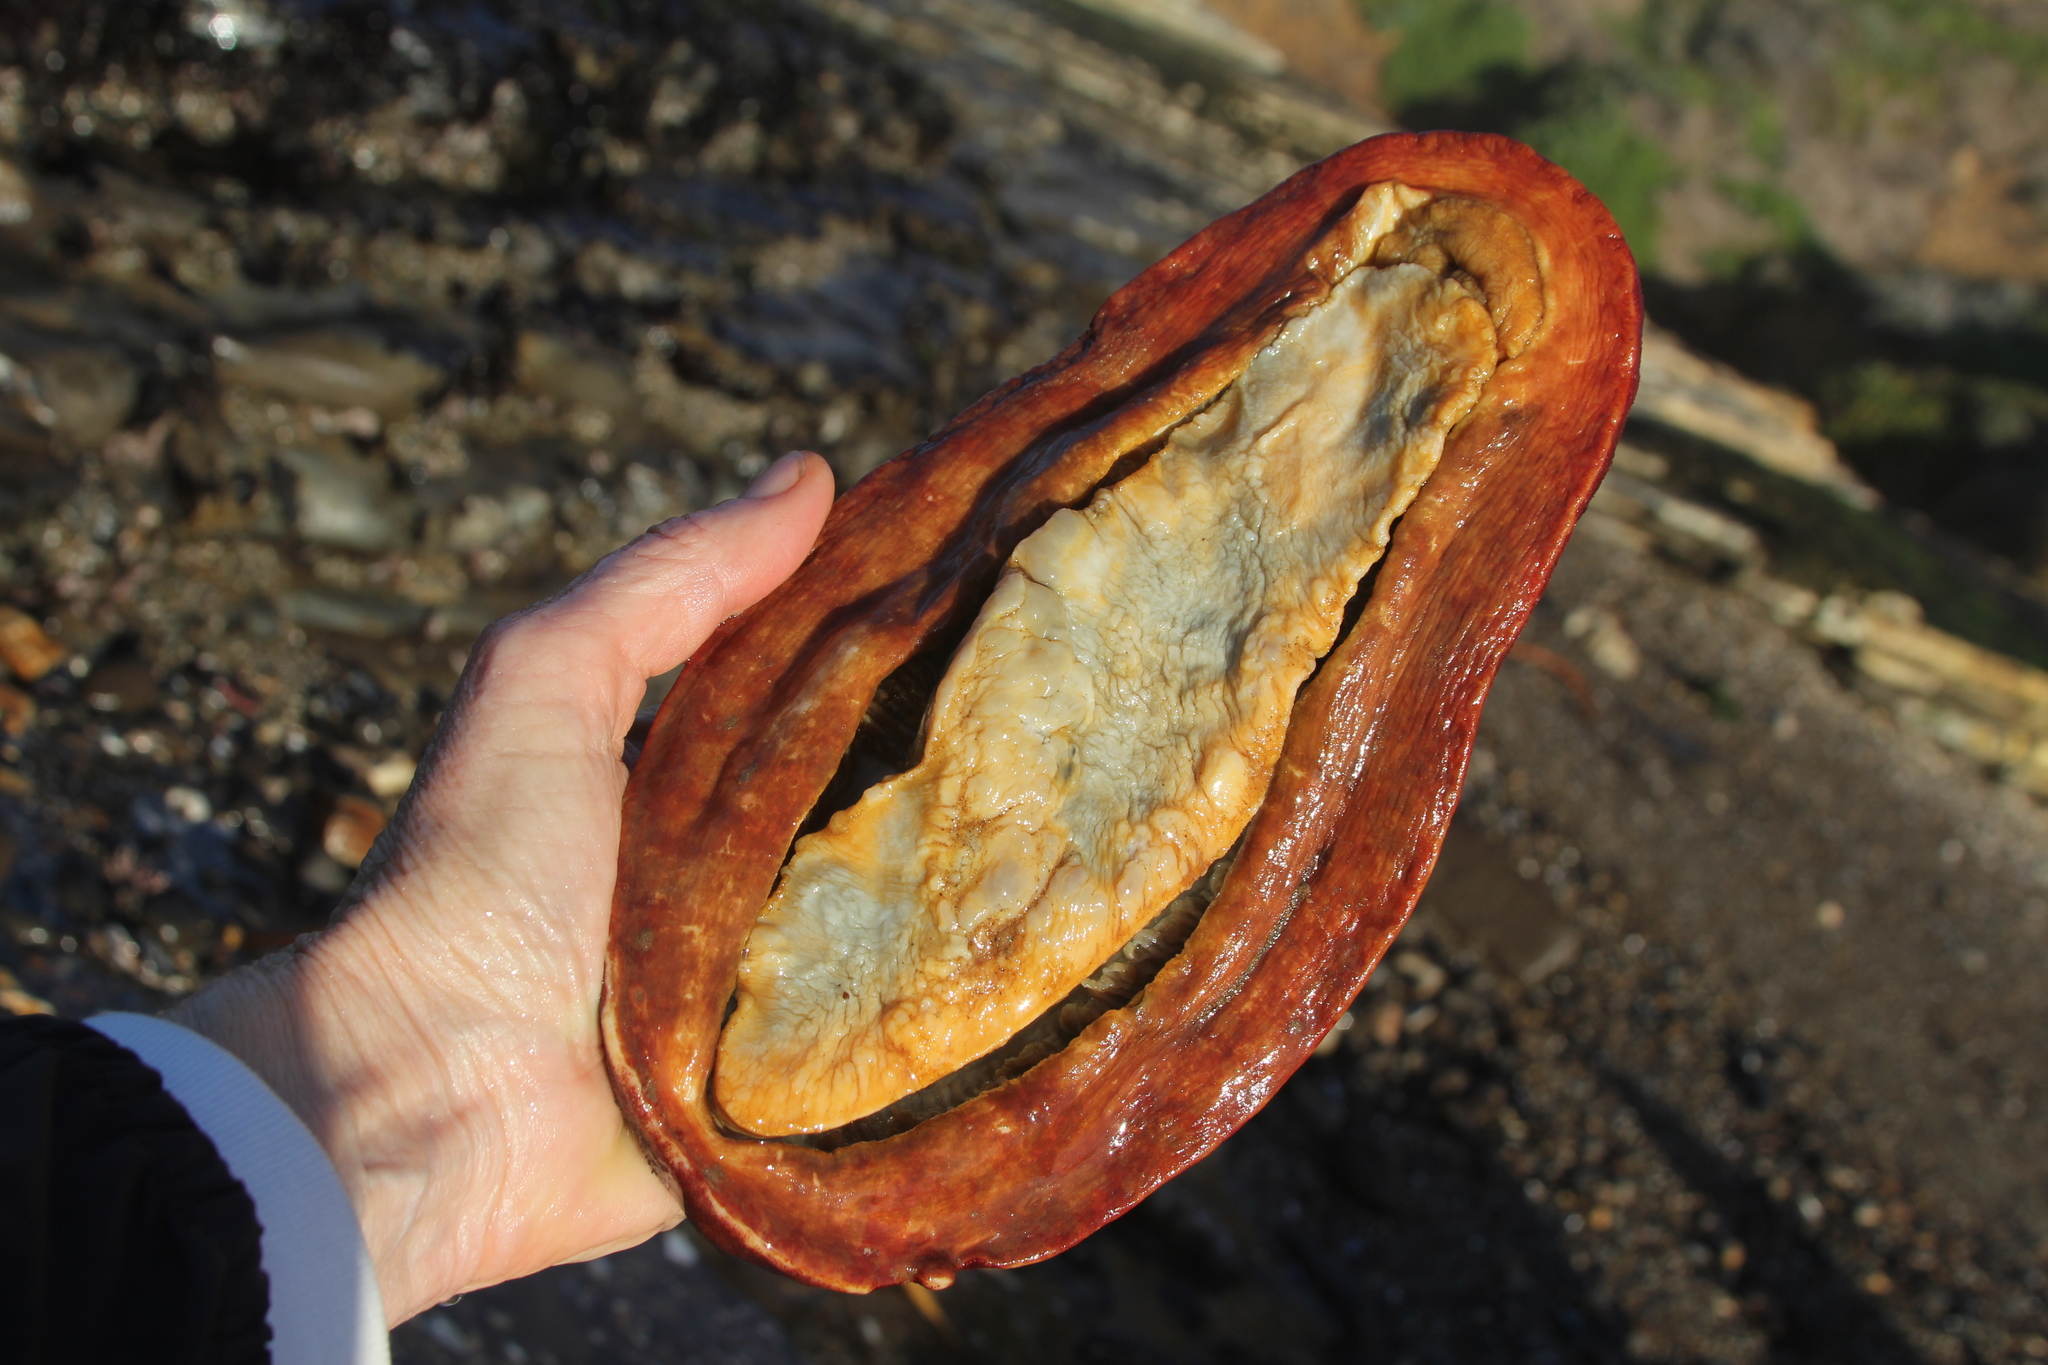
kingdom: Animalia
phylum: Mollusca
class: Polyplacophora
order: Chitonida
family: Acanthochitonidae
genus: Cryptochiton
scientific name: Cryptochiton stelleri
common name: Giant pacific chiton
